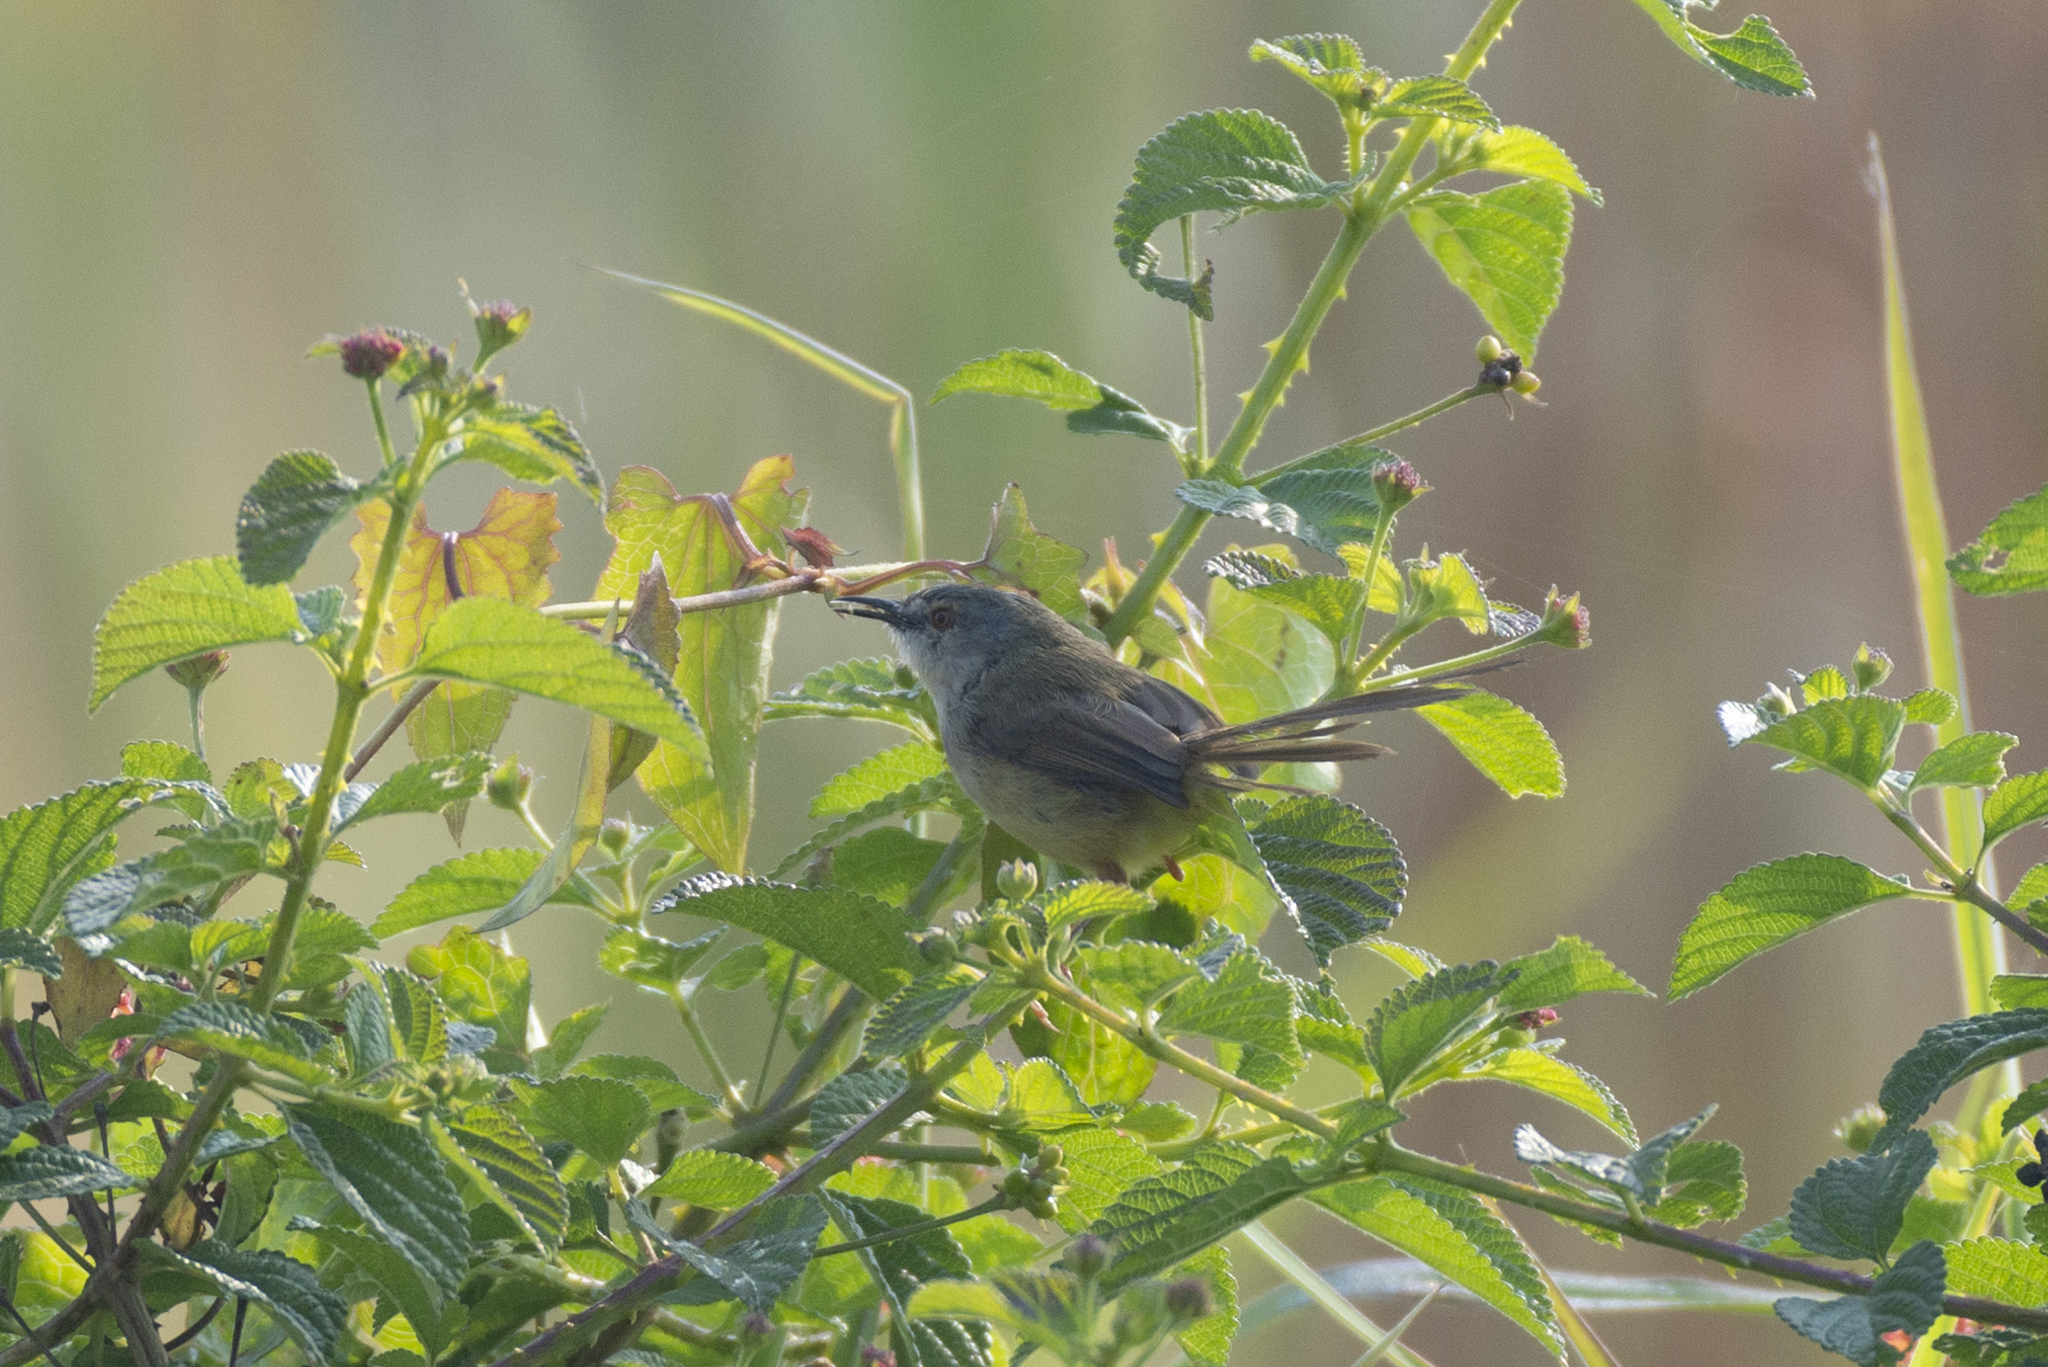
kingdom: Animalia
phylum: Chordata
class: Aves
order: Passeriformes
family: Cisticolidae
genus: Prinia
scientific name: Prinia flaviventris
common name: Yellow-bellied prinia
